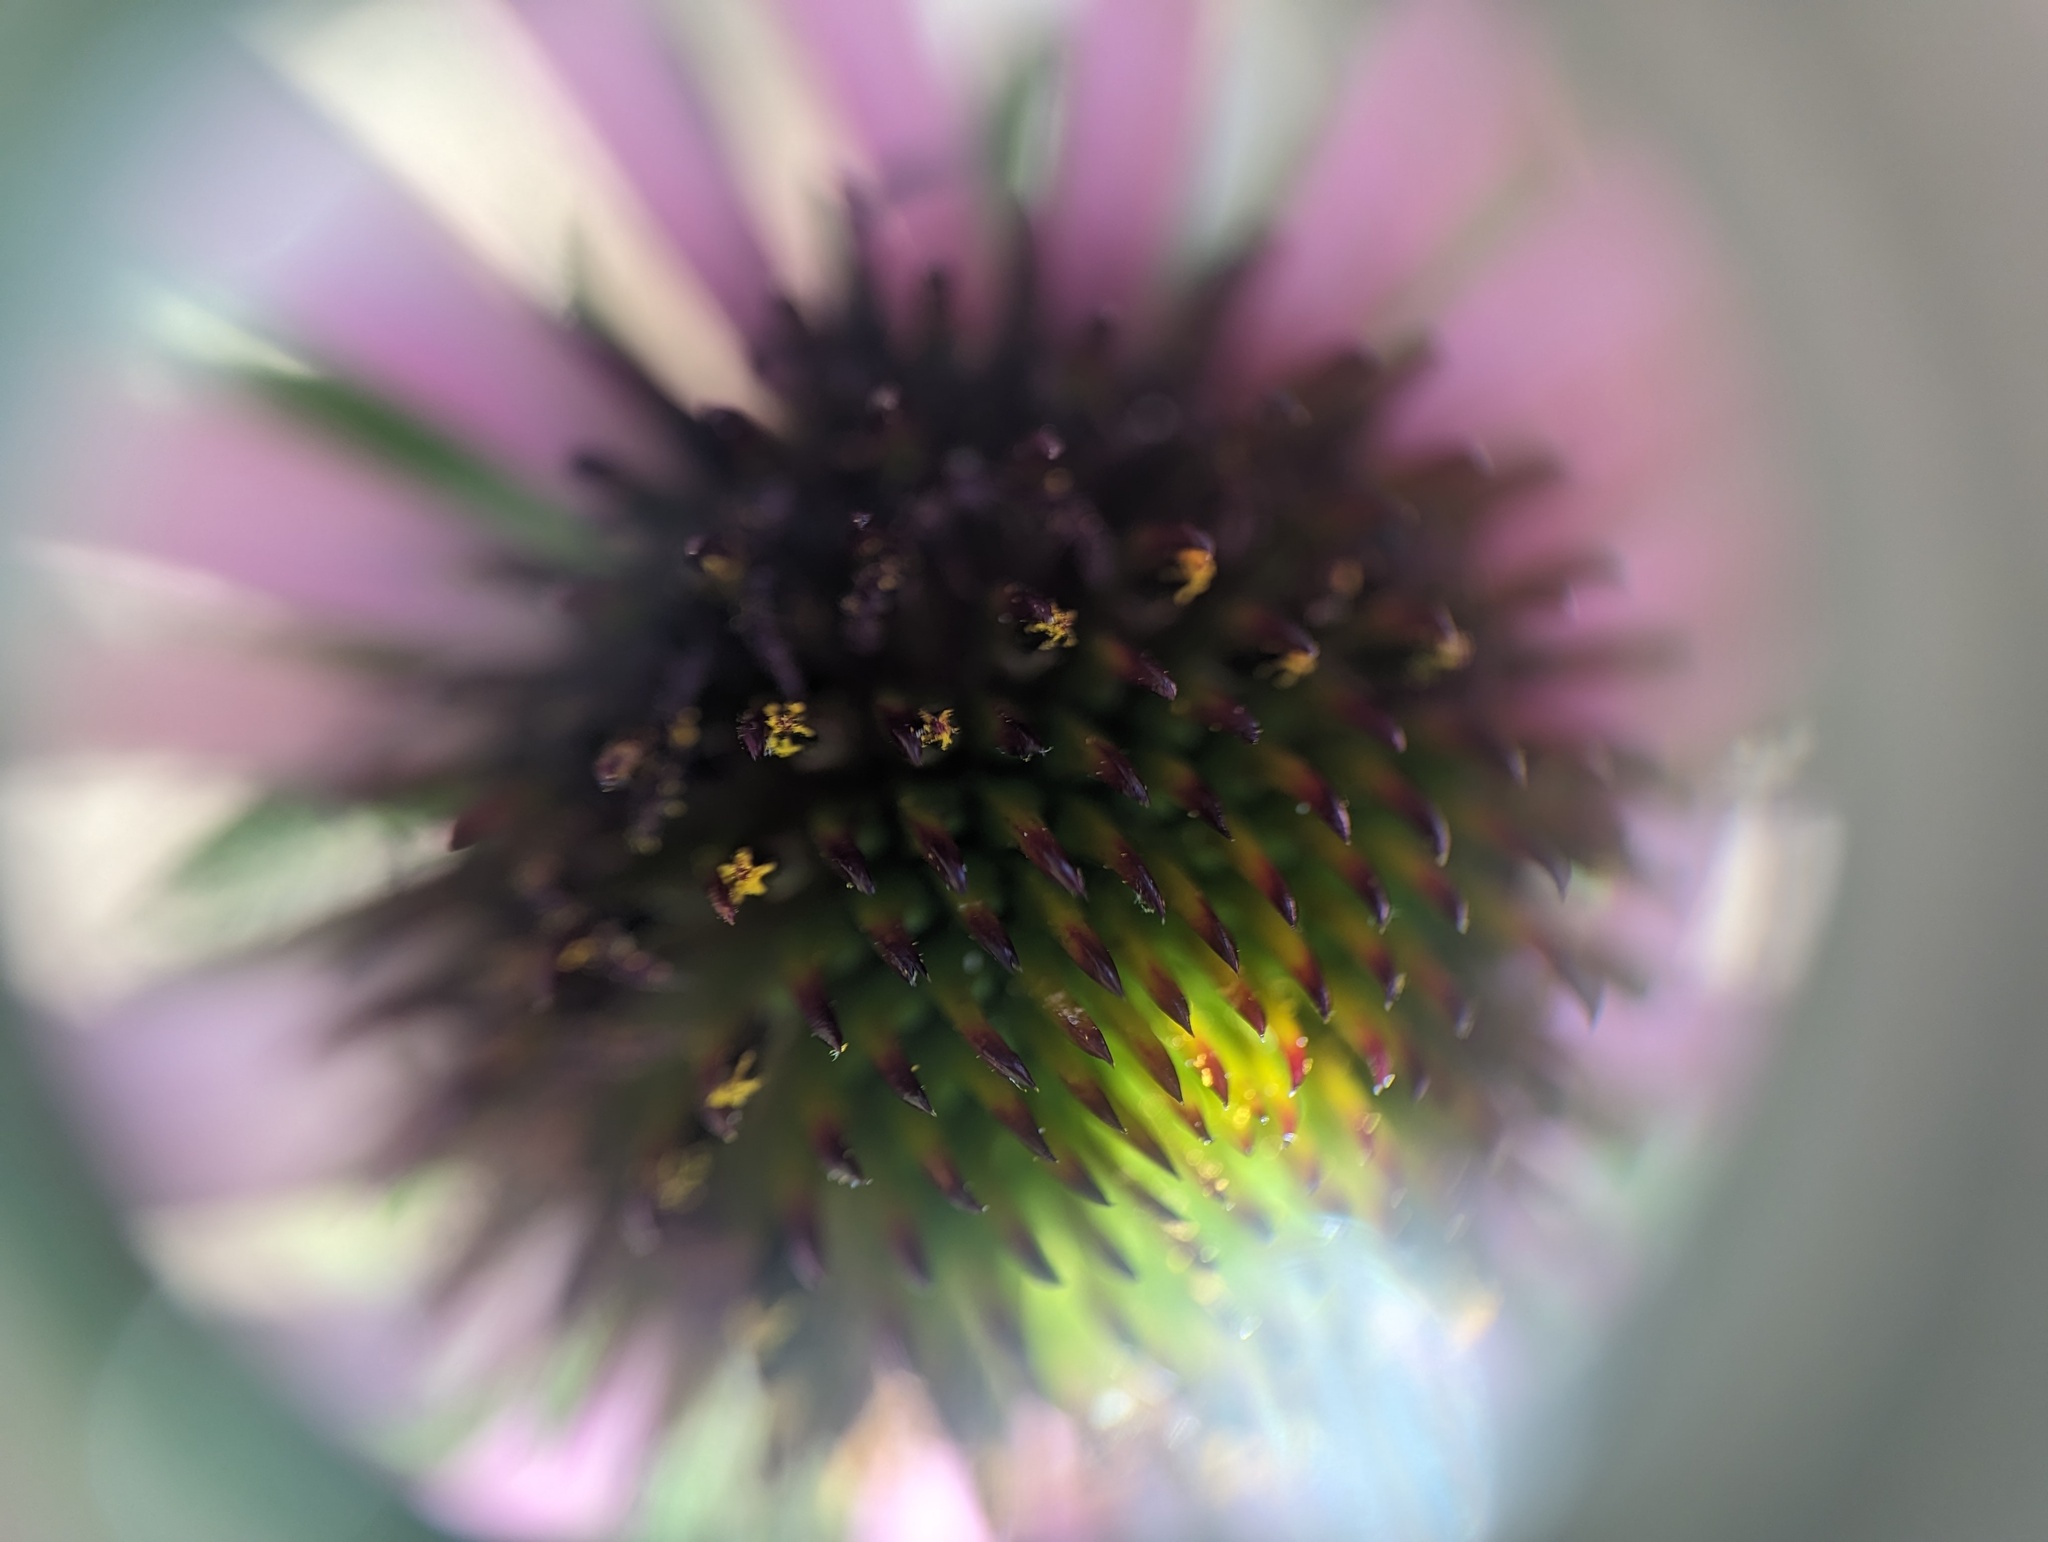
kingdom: Plantae
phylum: Tracheophyta
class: Magnoliopsida
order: Asterales
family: Asteraceae
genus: Echinacea
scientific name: Echinacea simulata
